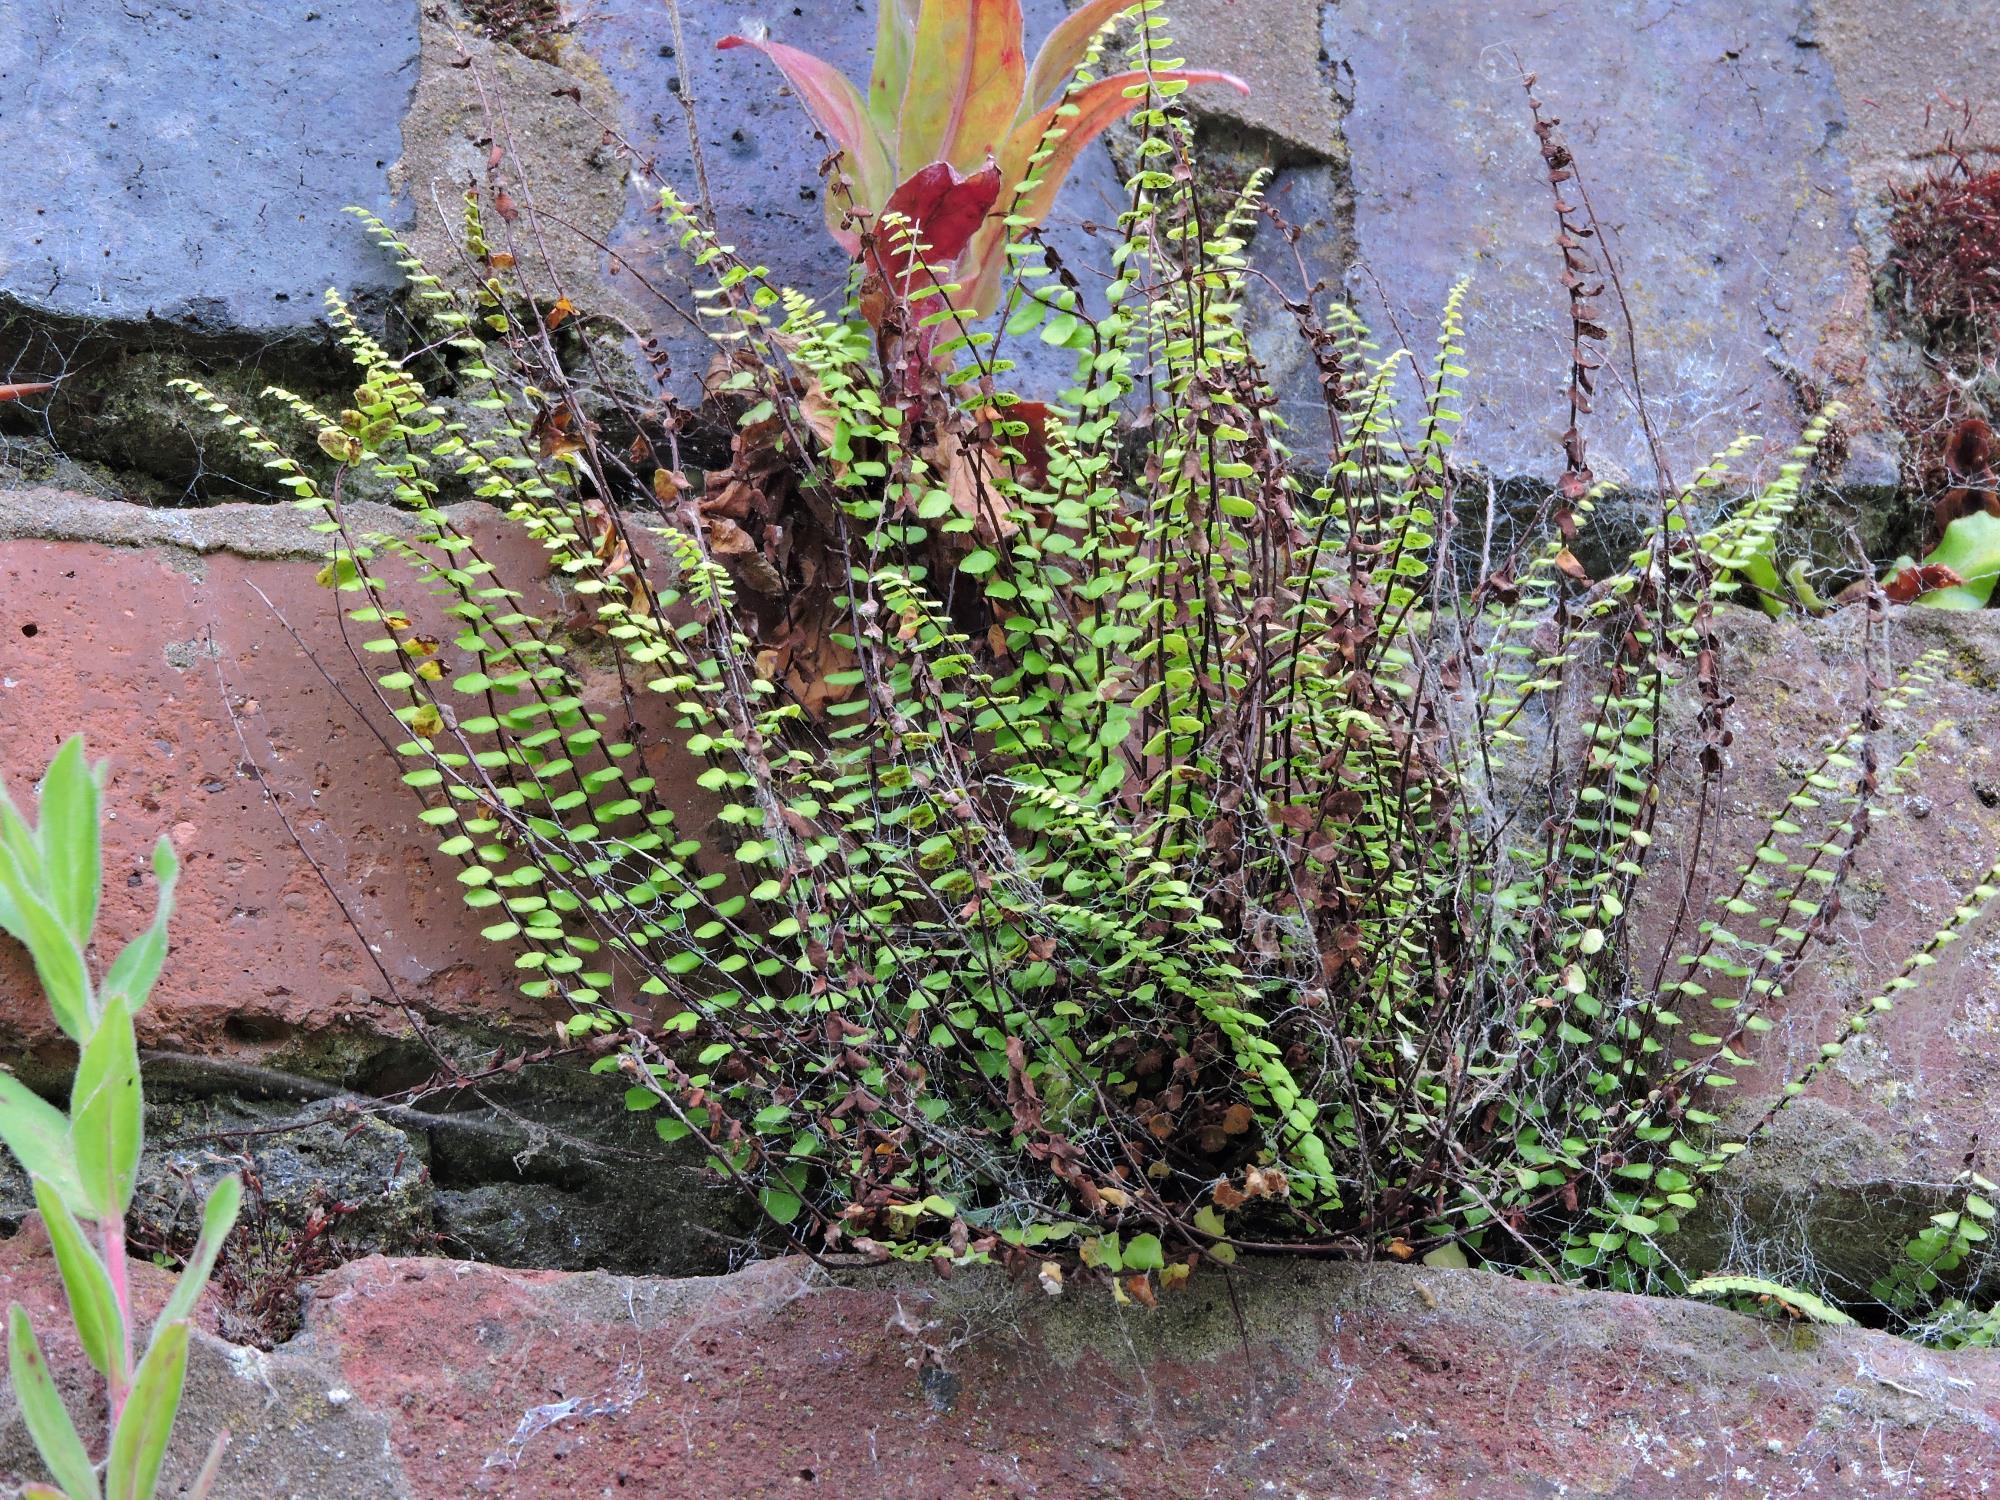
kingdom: Plantae
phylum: Tracheophyta
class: Polypodiopsida
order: Polypodiales
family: Aspleniaceae
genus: Asplenium
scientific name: Asplenium trichomanes
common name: Maidenhair spleenwort
